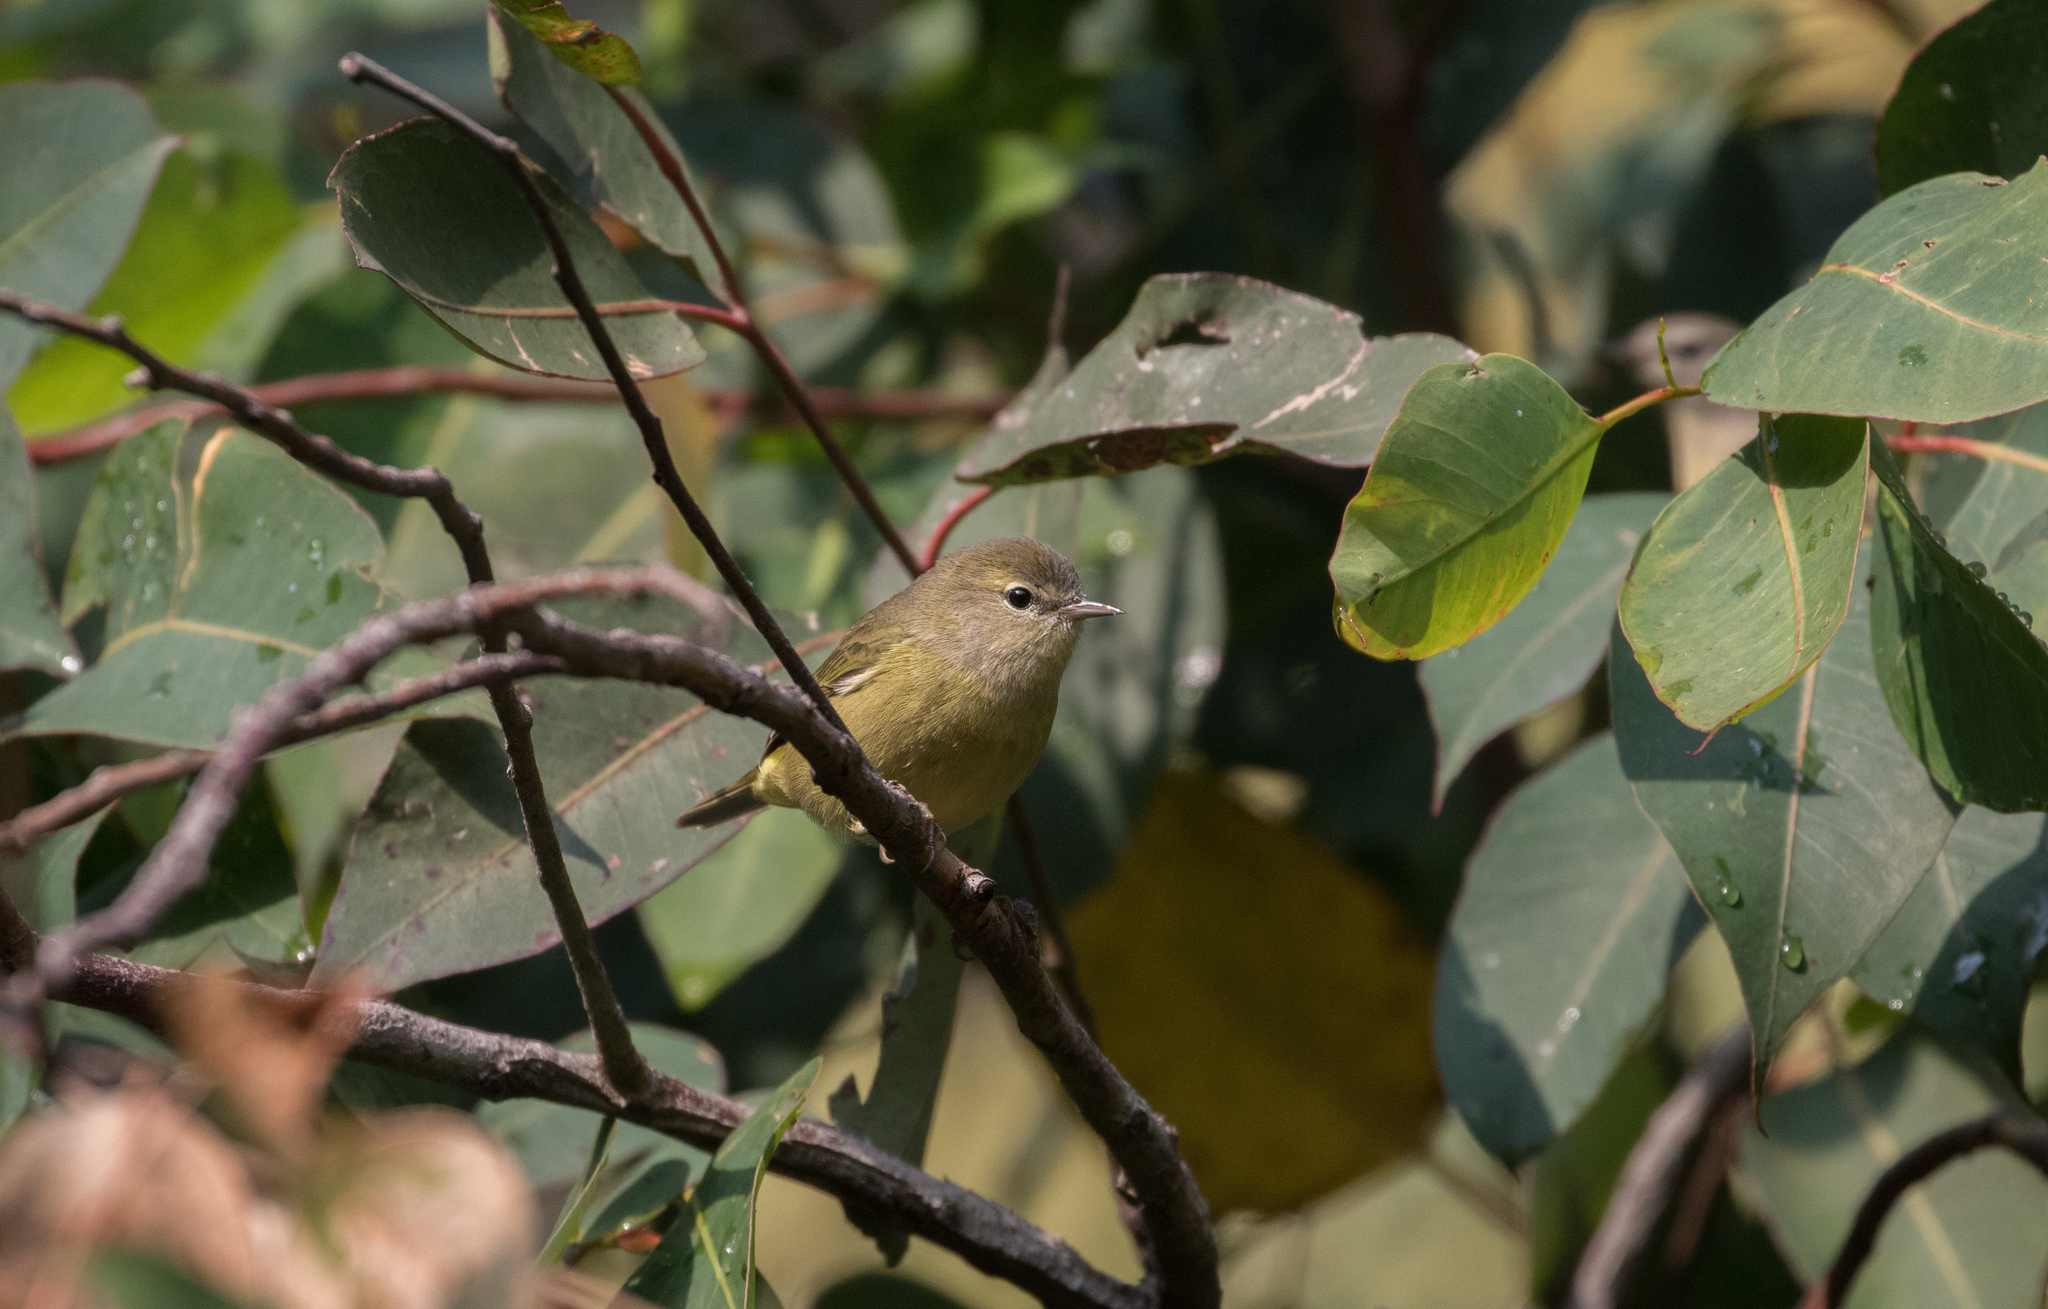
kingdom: Animalia
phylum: Chordata
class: Aves
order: Passeriformes
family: Parulidae
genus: Leiothlypis
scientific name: Leiothlypis celata
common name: Orange-crowned warbler
